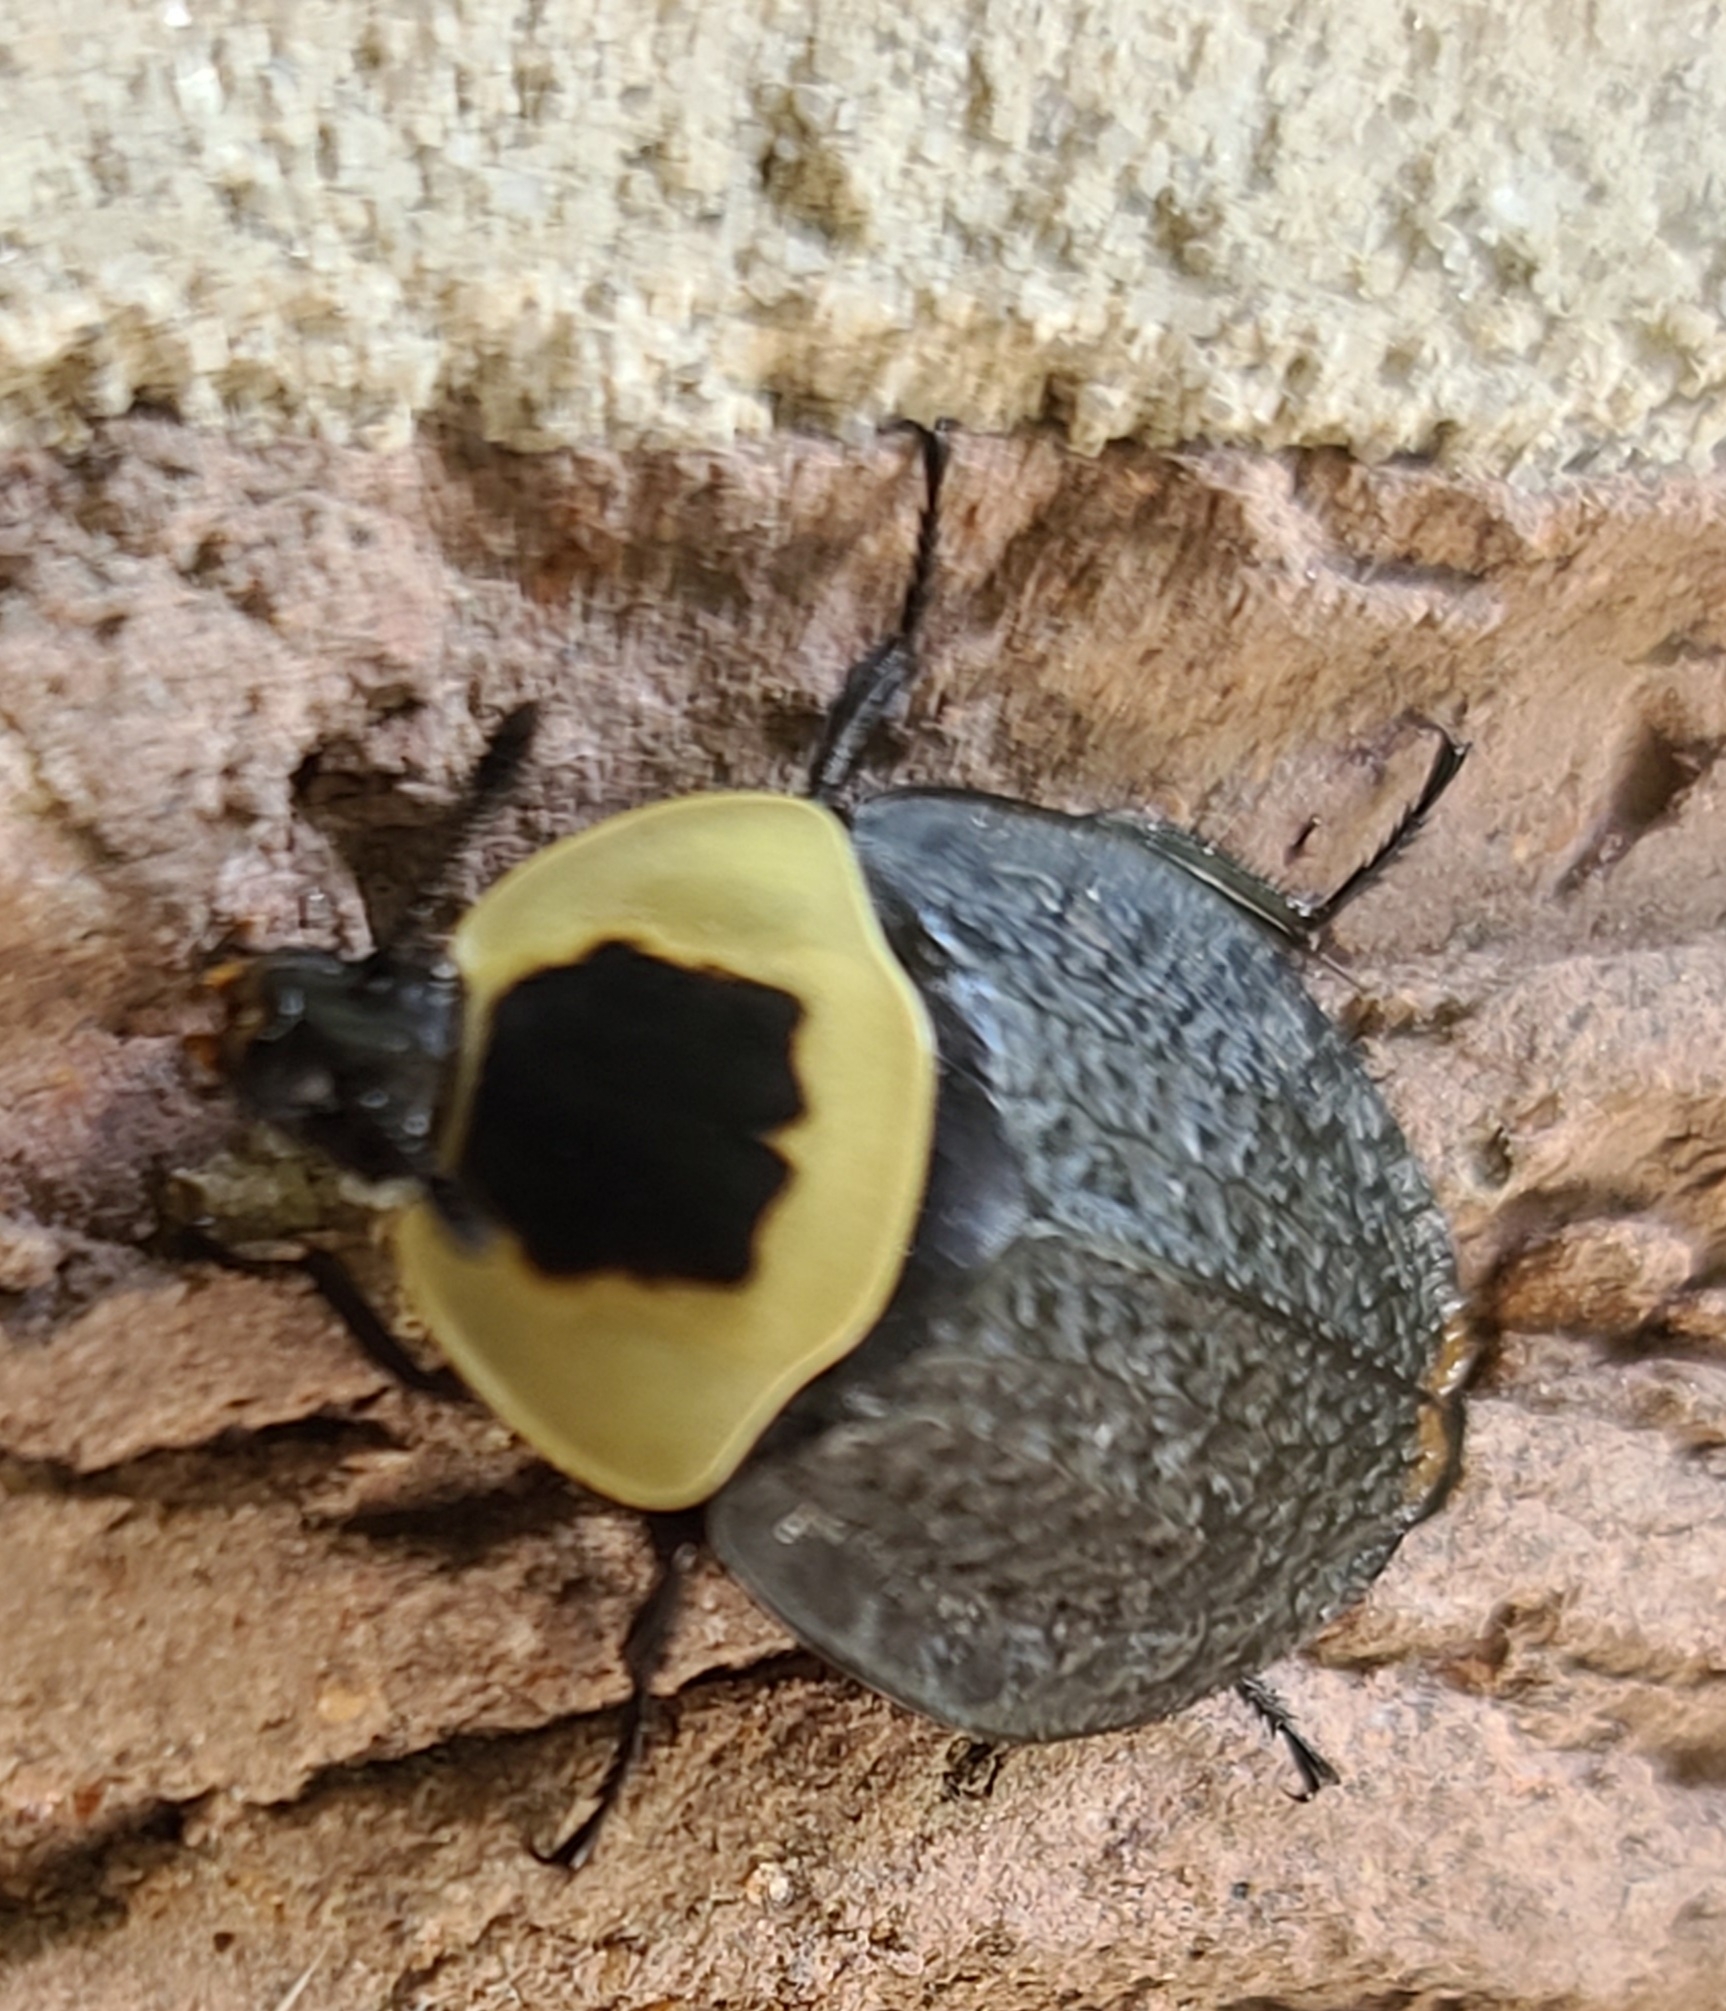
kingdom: Animalia
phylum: Arthropoda
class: Insecta
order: Coleoptera
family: Staphylinidae
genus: Necrophila
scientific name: Necrophila americana
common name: American carrion beetle
